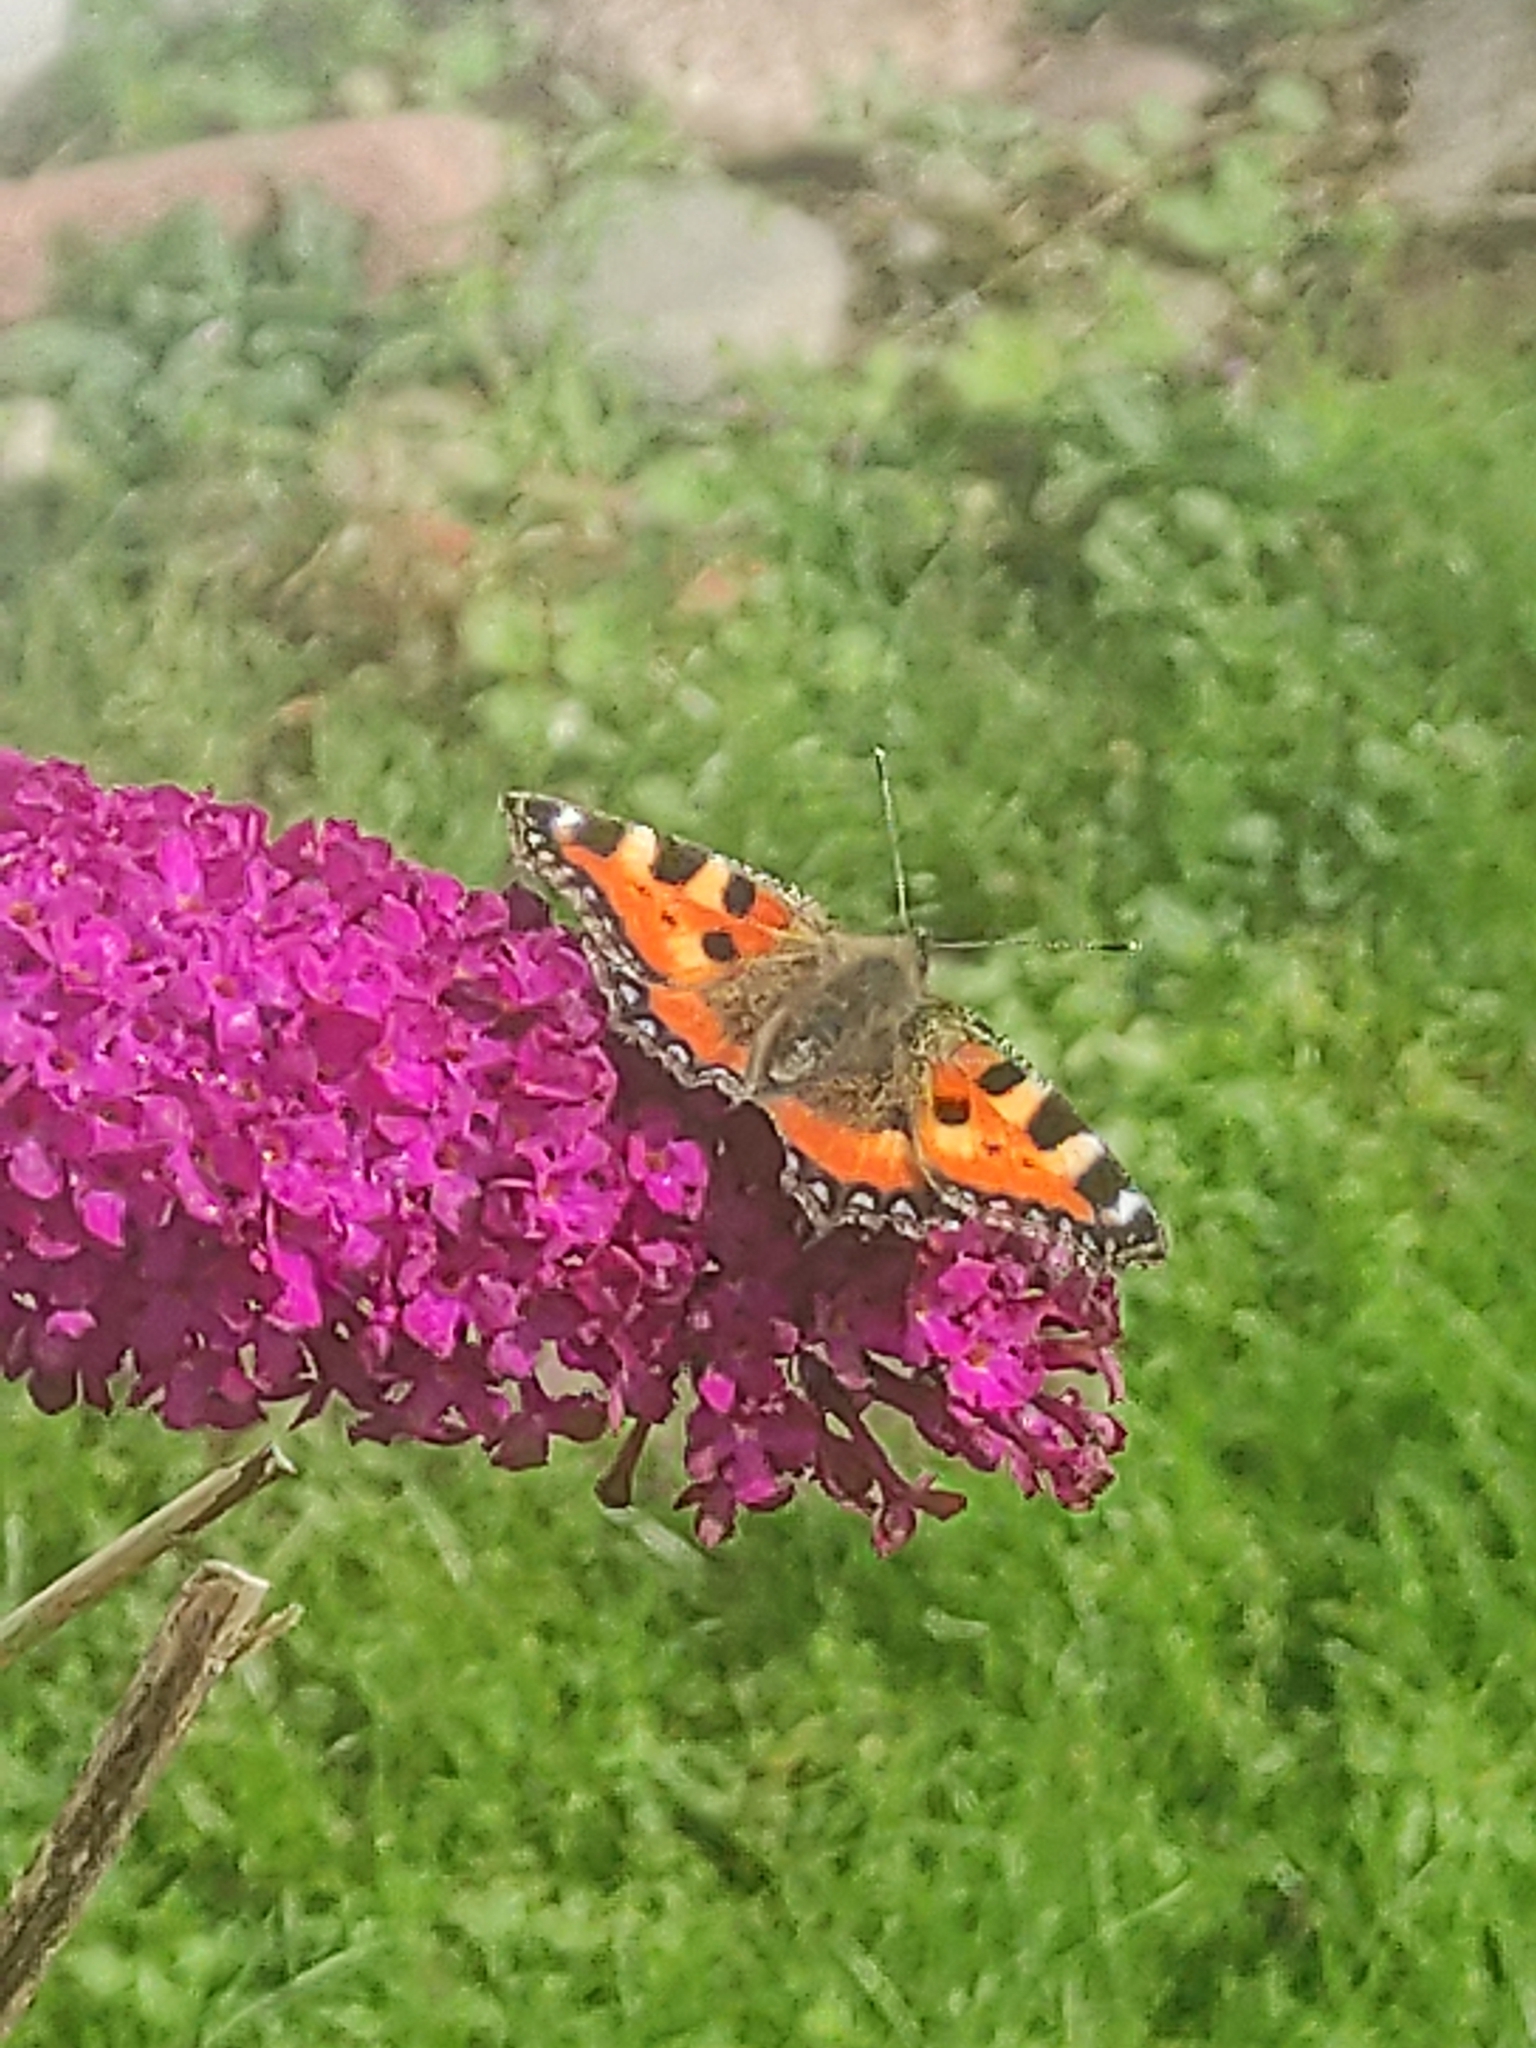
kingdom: Animalia
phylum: Arthropoda
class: Insecta
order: Lepidoptera
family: Nymphalidae
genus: Aglais
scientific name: Aglais urticae
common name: Small tortoiseshell
